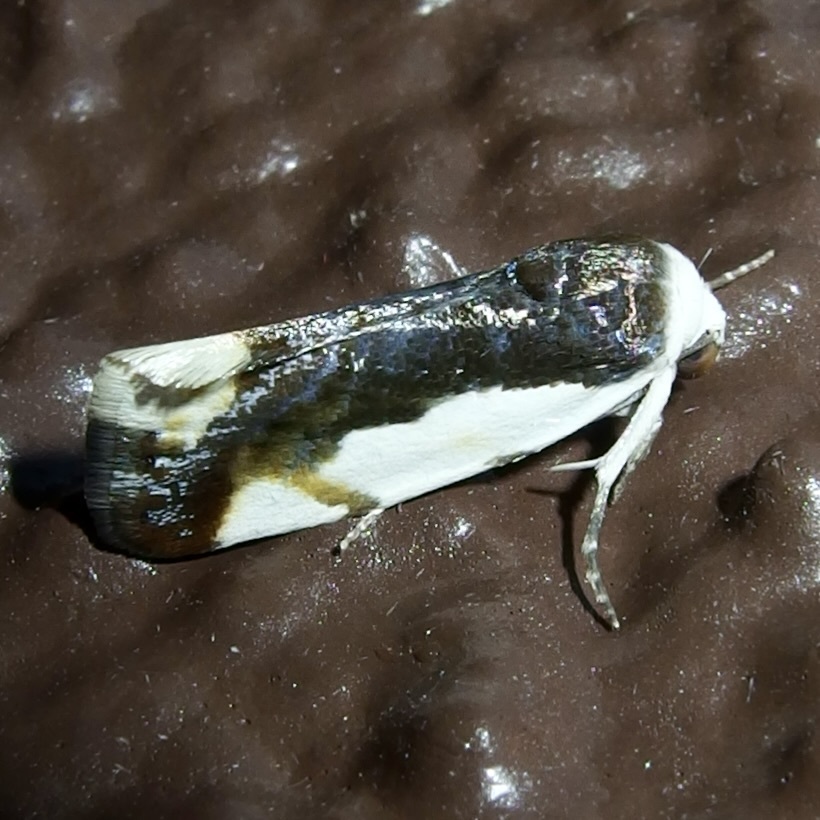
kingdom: Animalia
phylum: Arthropoda
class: Insecta
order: Lepidoptera
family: Noctuidae
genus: Acontia
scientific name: Acontia Tarache expolita
